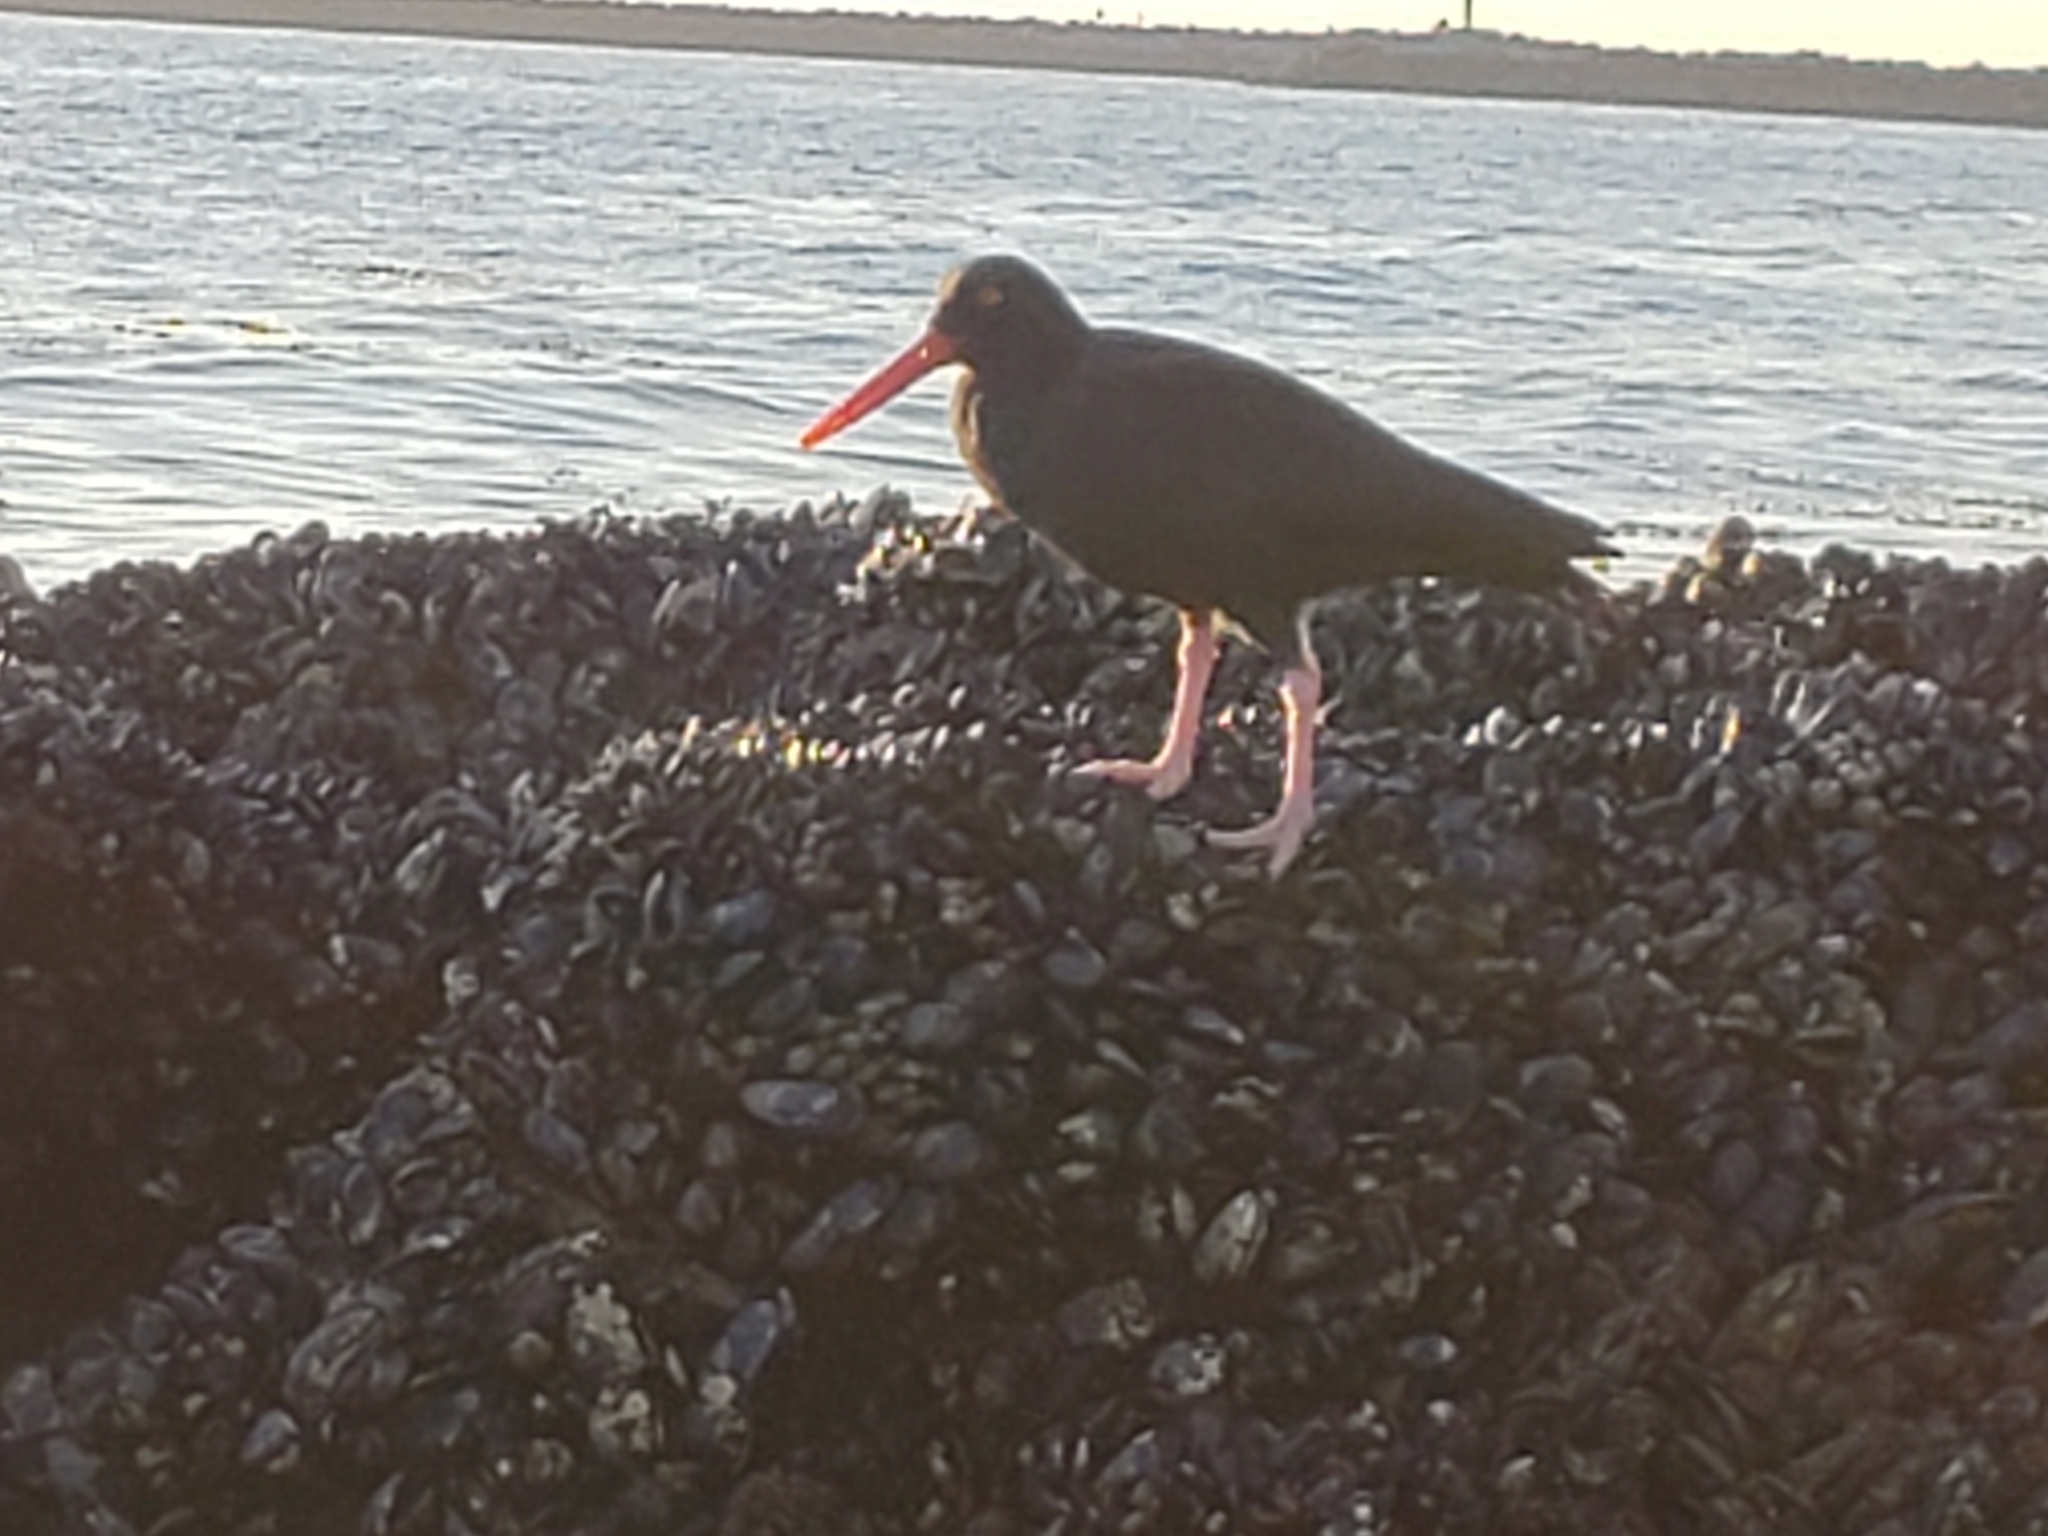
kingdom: Animalia
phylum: Chordata
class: Aves
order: Charadriiformes
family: Haematopodidae
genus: Haematopus
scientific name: Haematopus bachmani
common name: Black oystercatcher
